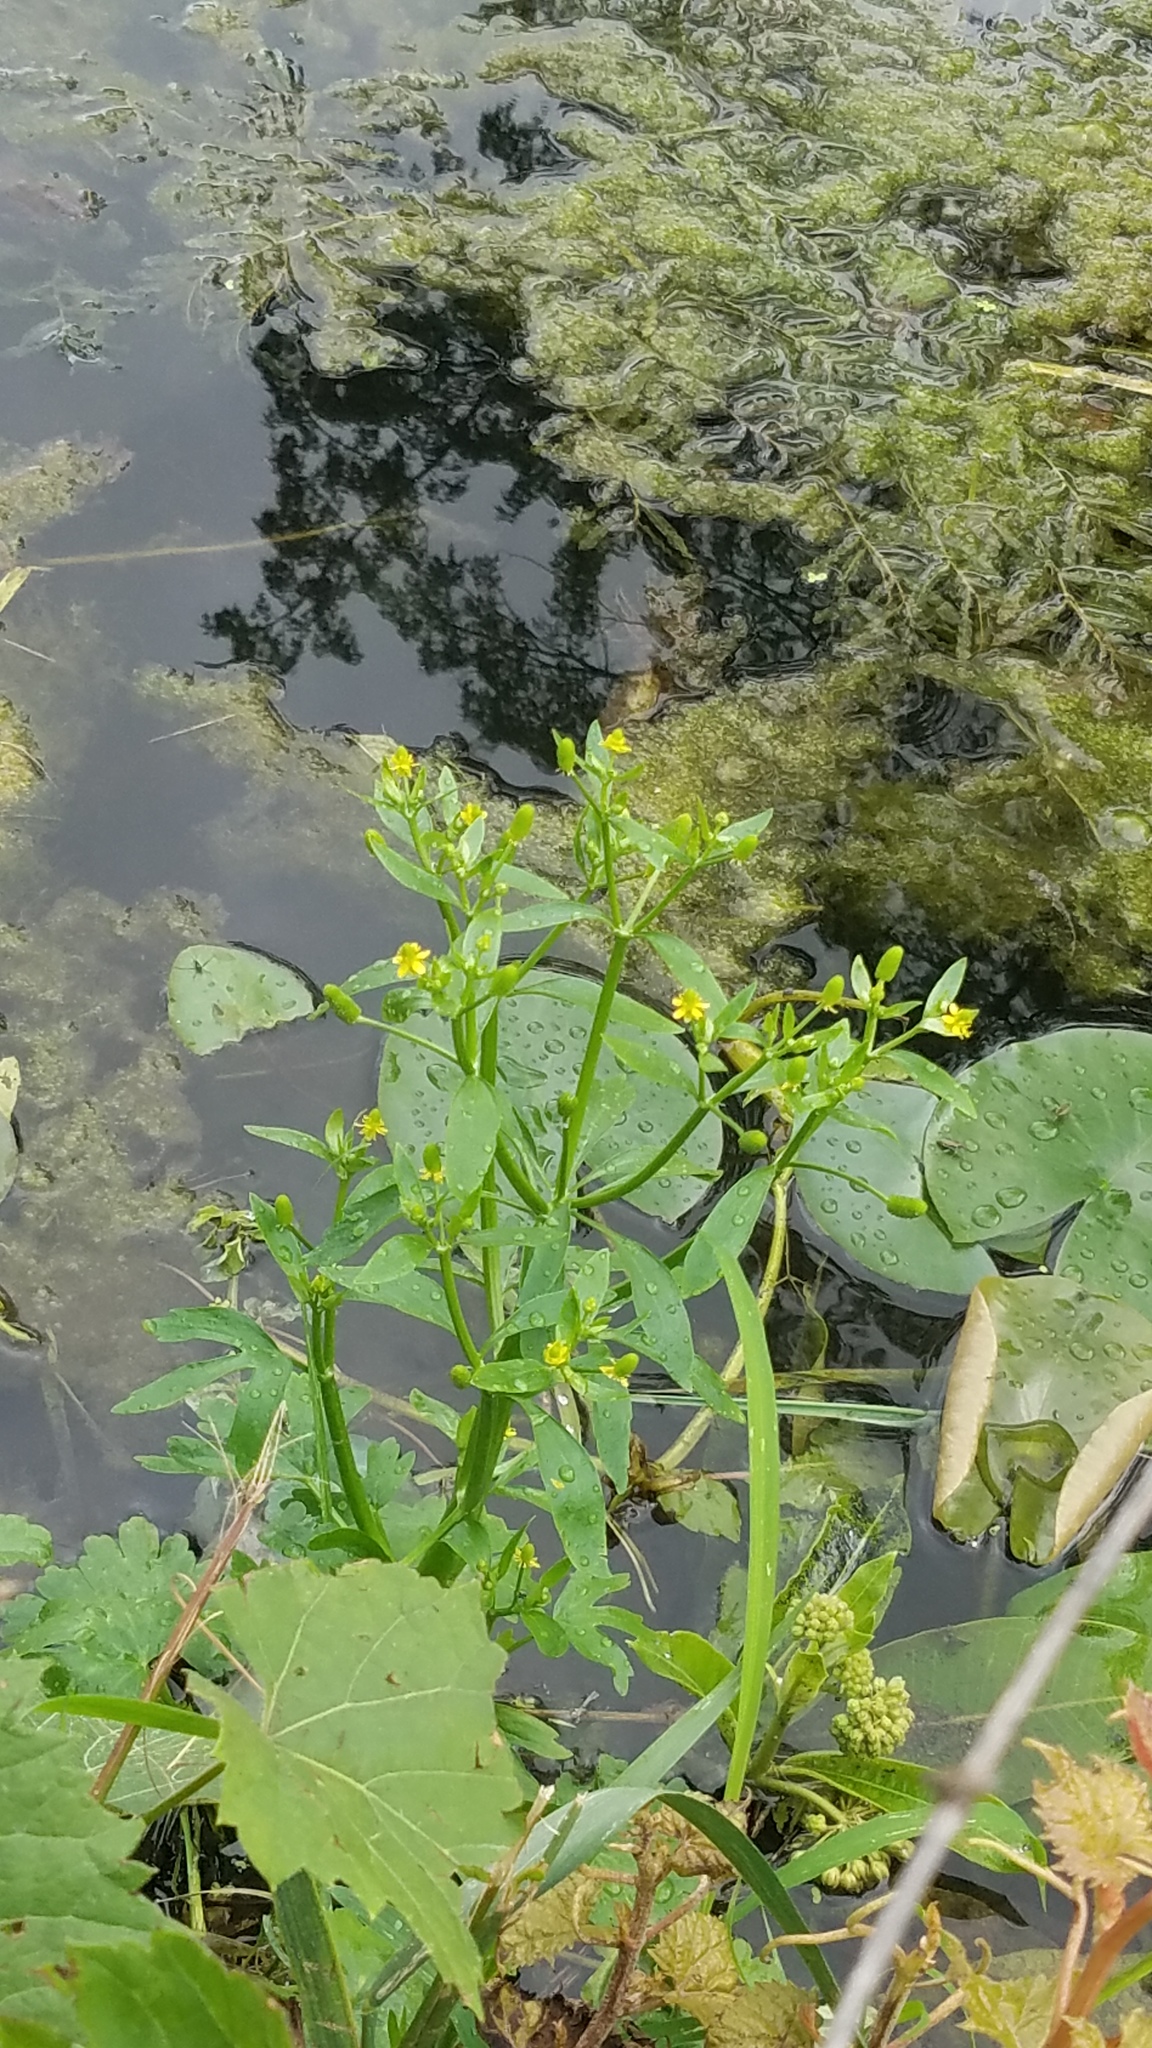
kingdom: Plantae
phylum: Tracheophyta
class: Magnoliopsida
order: Ranunculales
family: Ranunculaceae
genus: Ranunculus
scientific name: Ranunculus sceleratus
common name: Celery-leaved buttercup
